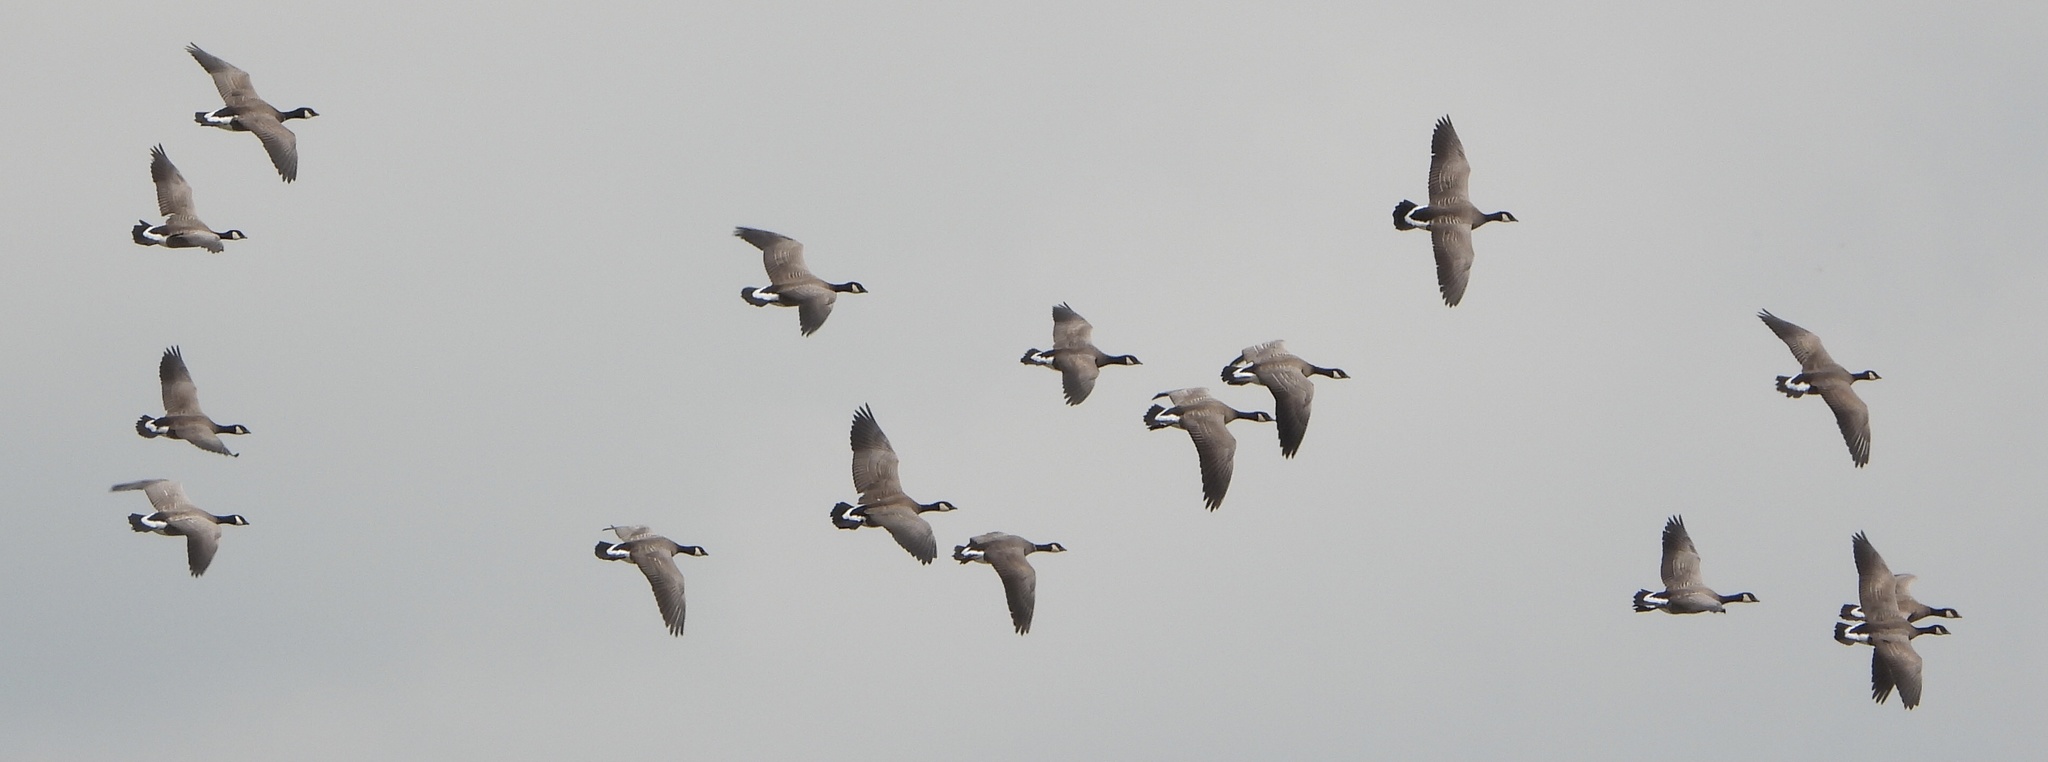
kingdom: Animalia
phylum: Chordata
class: Aves
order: Anseriformes
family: Anatidae
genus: Branta
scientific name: Branta hutchinsii
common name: Cackling goose
